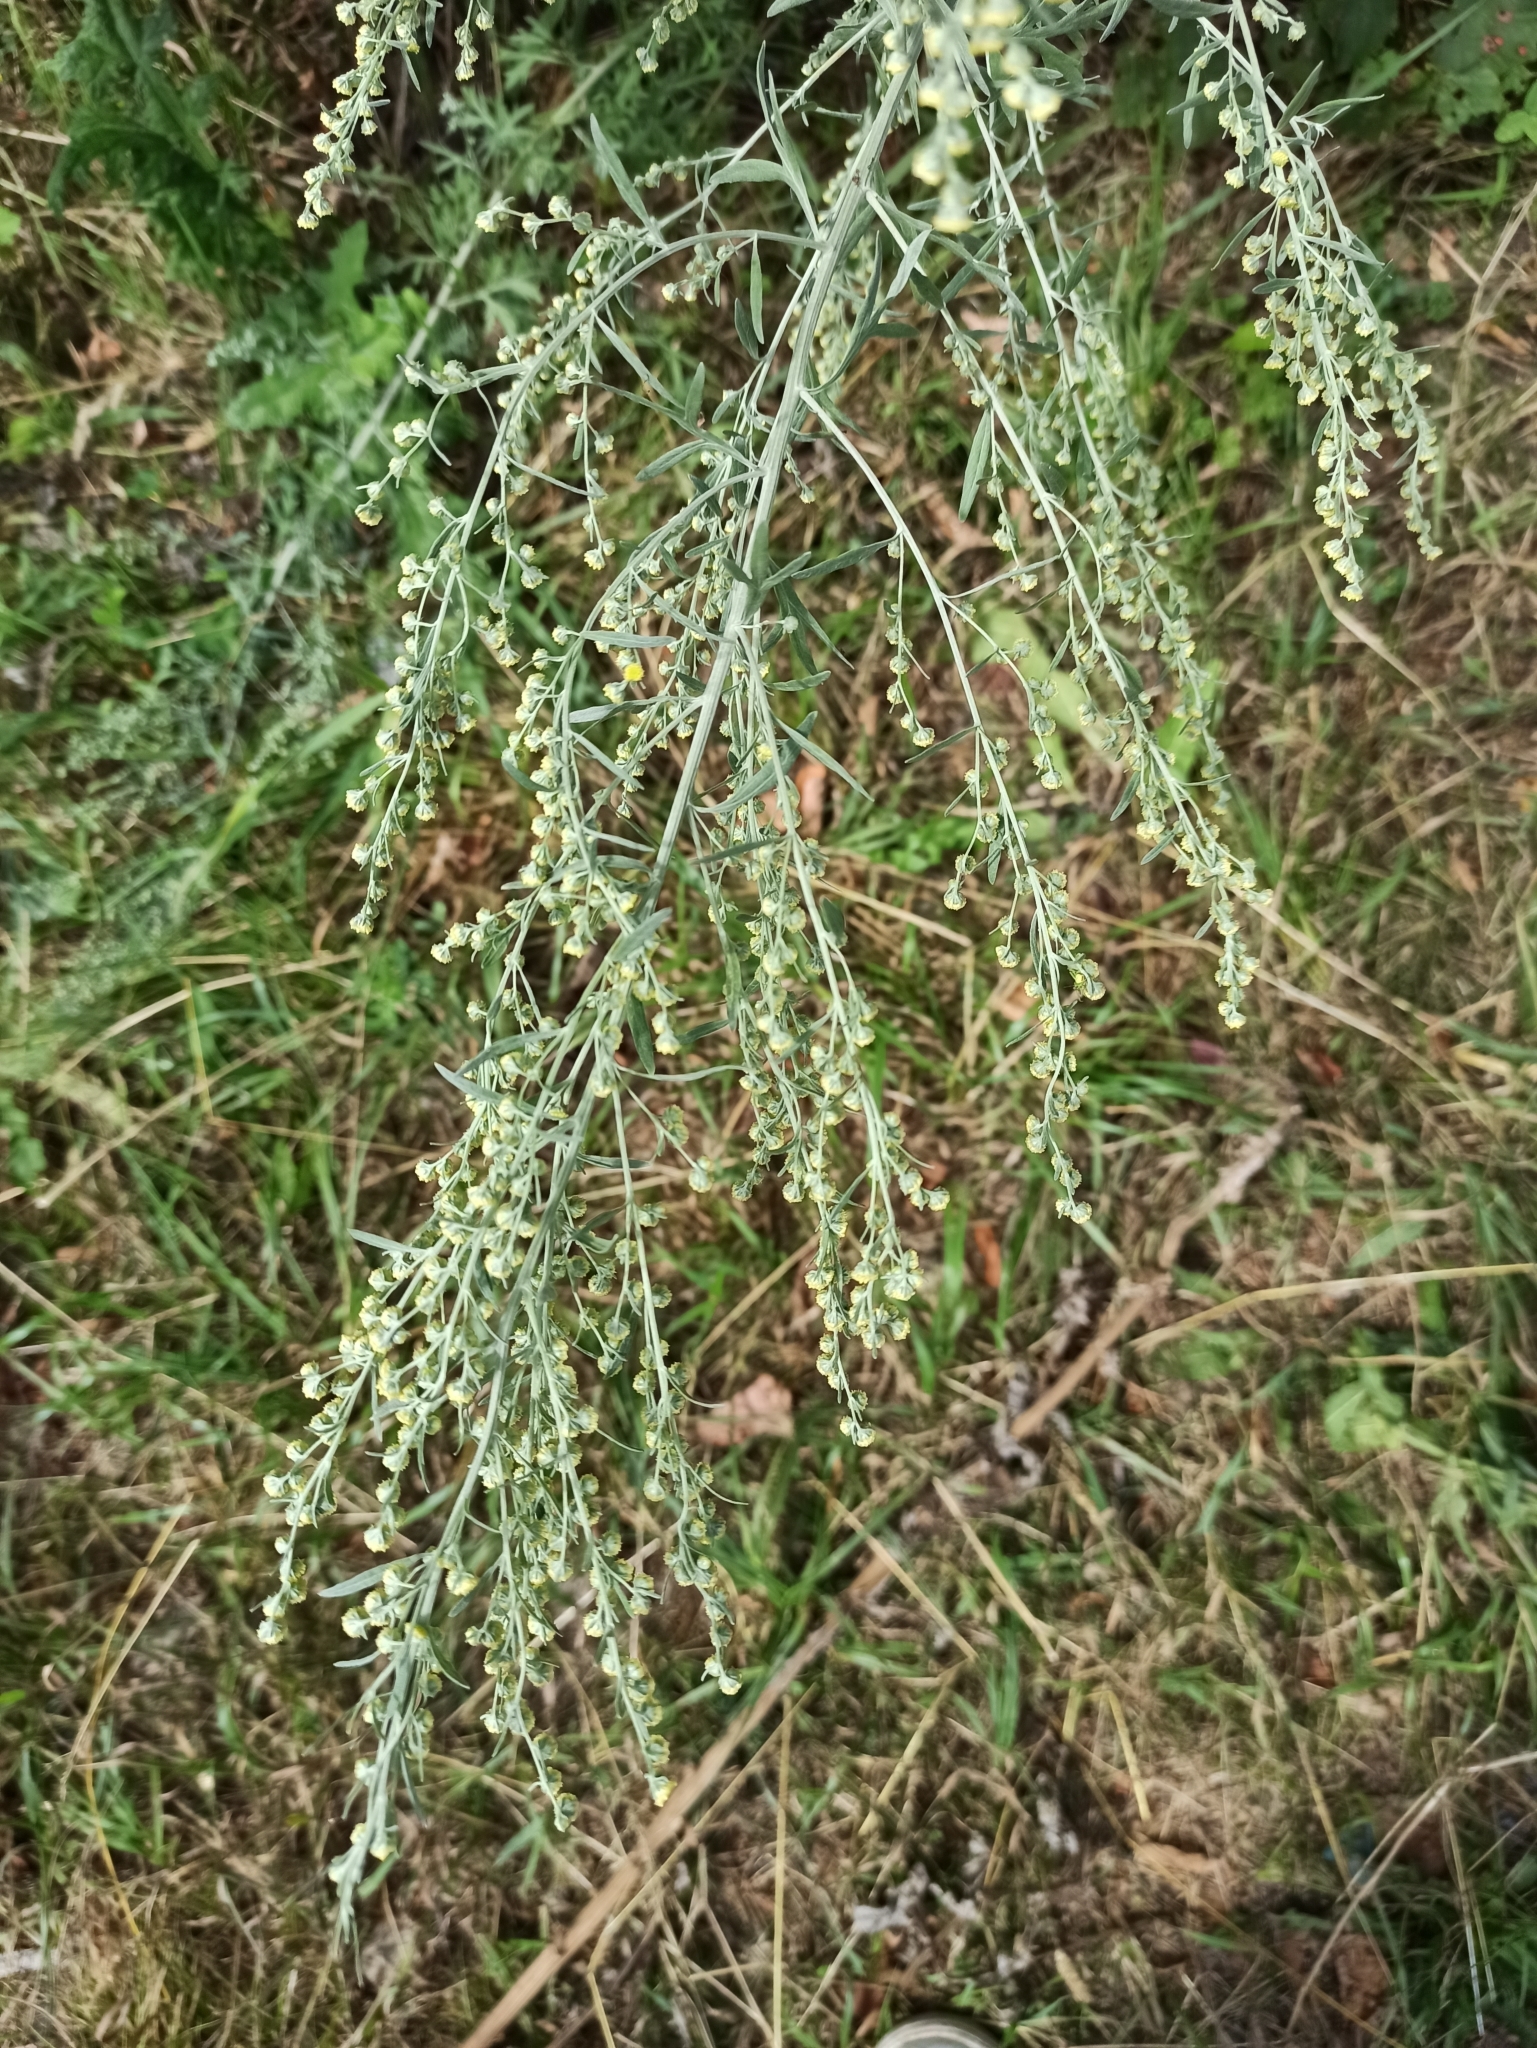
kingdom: Plantae
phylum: Tracheophyta
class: Magnoliopsida
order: Asterales
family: Asteraceae
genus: Artemisia
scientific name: Artemisia absinthium
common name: Wormwood
